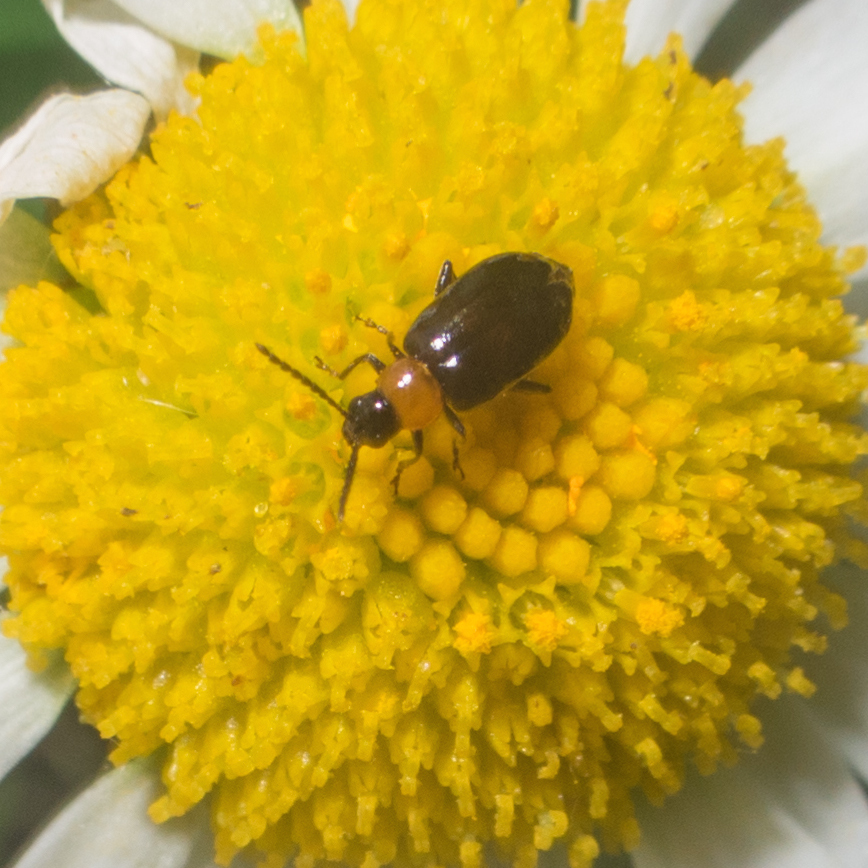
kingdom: Animalia
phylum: Arthropoda
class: Insecta
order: Coleoptera
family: Chrysomelidae
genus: Luperomorpha
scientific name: Luperomorpha xanthodera
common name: Rose flea beetle
